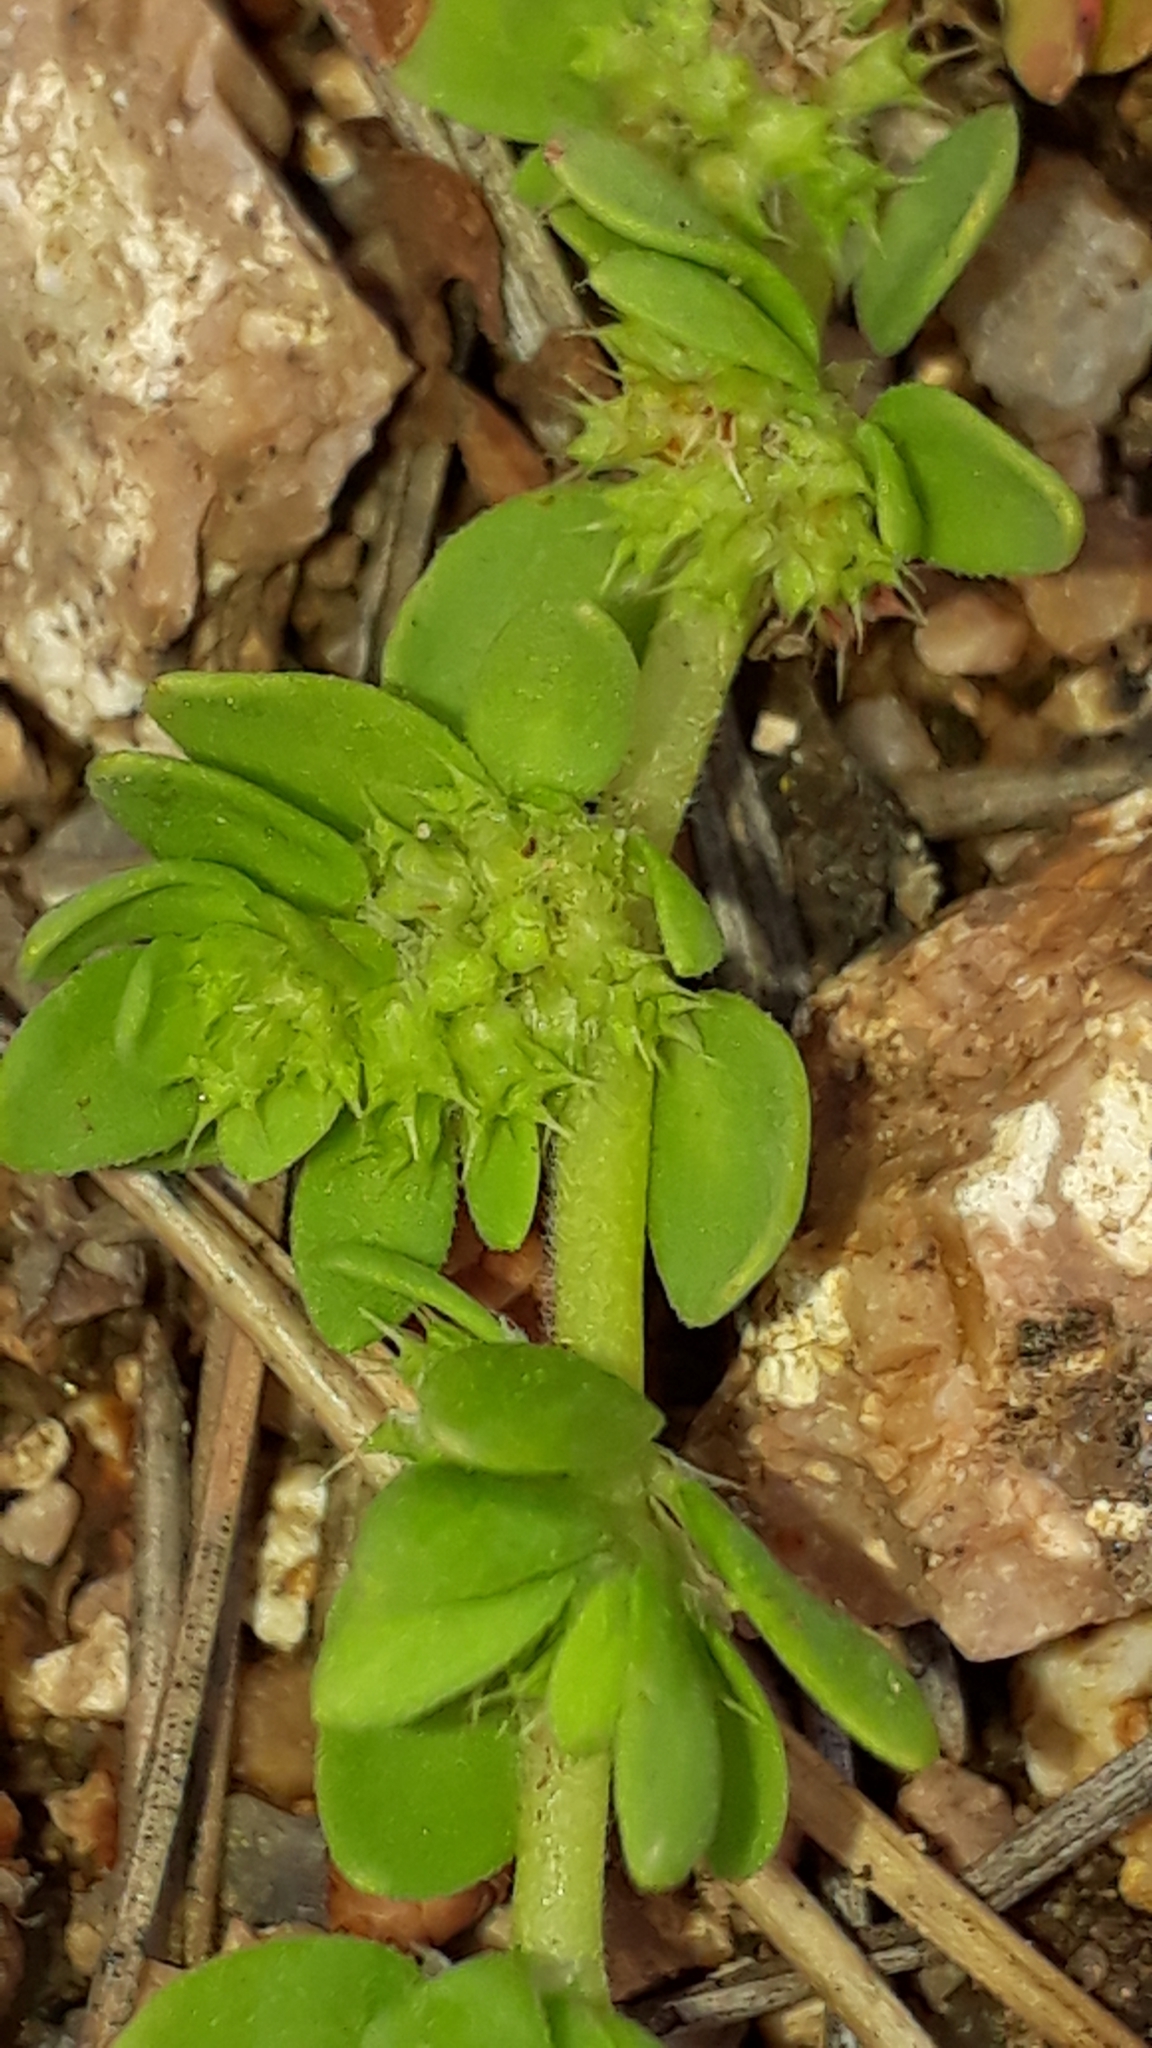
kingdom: Plantae
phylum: Tracheophyta
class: Magnoliopsida
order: Caryophyllales
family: Caryophyllaceae
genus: Paronychia
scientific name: Paronychia echinulata
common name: Eurasian nailwort
